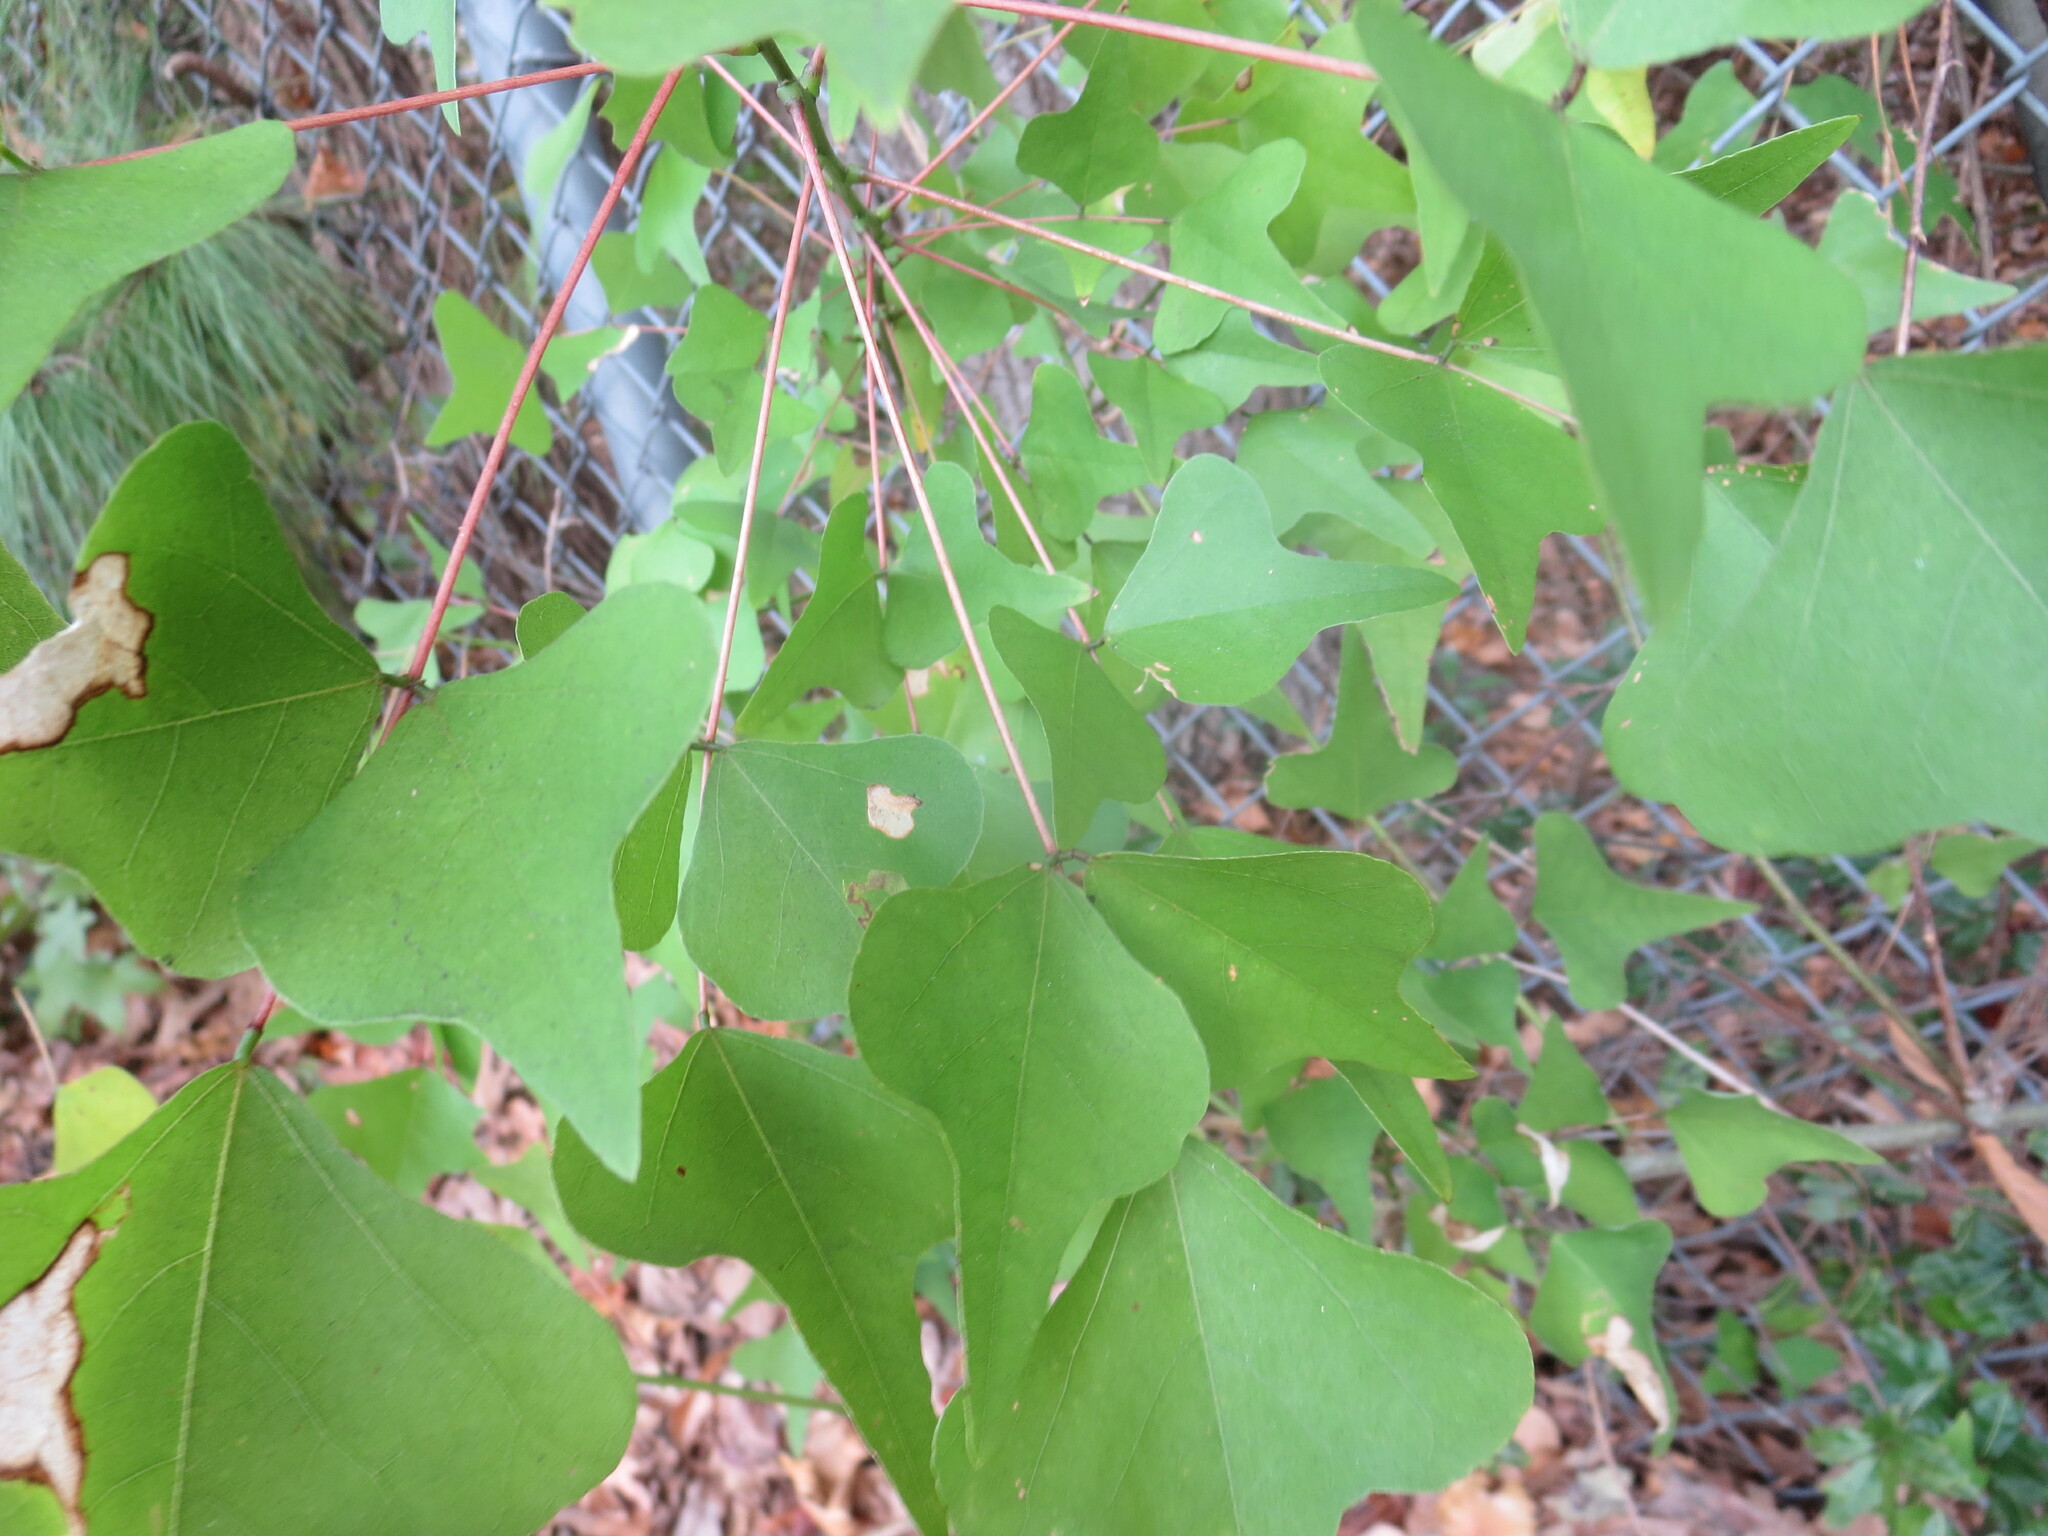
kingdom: Plantae
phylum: Tracheophyta
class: Magnoliopsida
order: Fabales
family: Fabaceae
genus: Erythrina
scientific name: Erythrina herbacea
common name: Coral-bean
